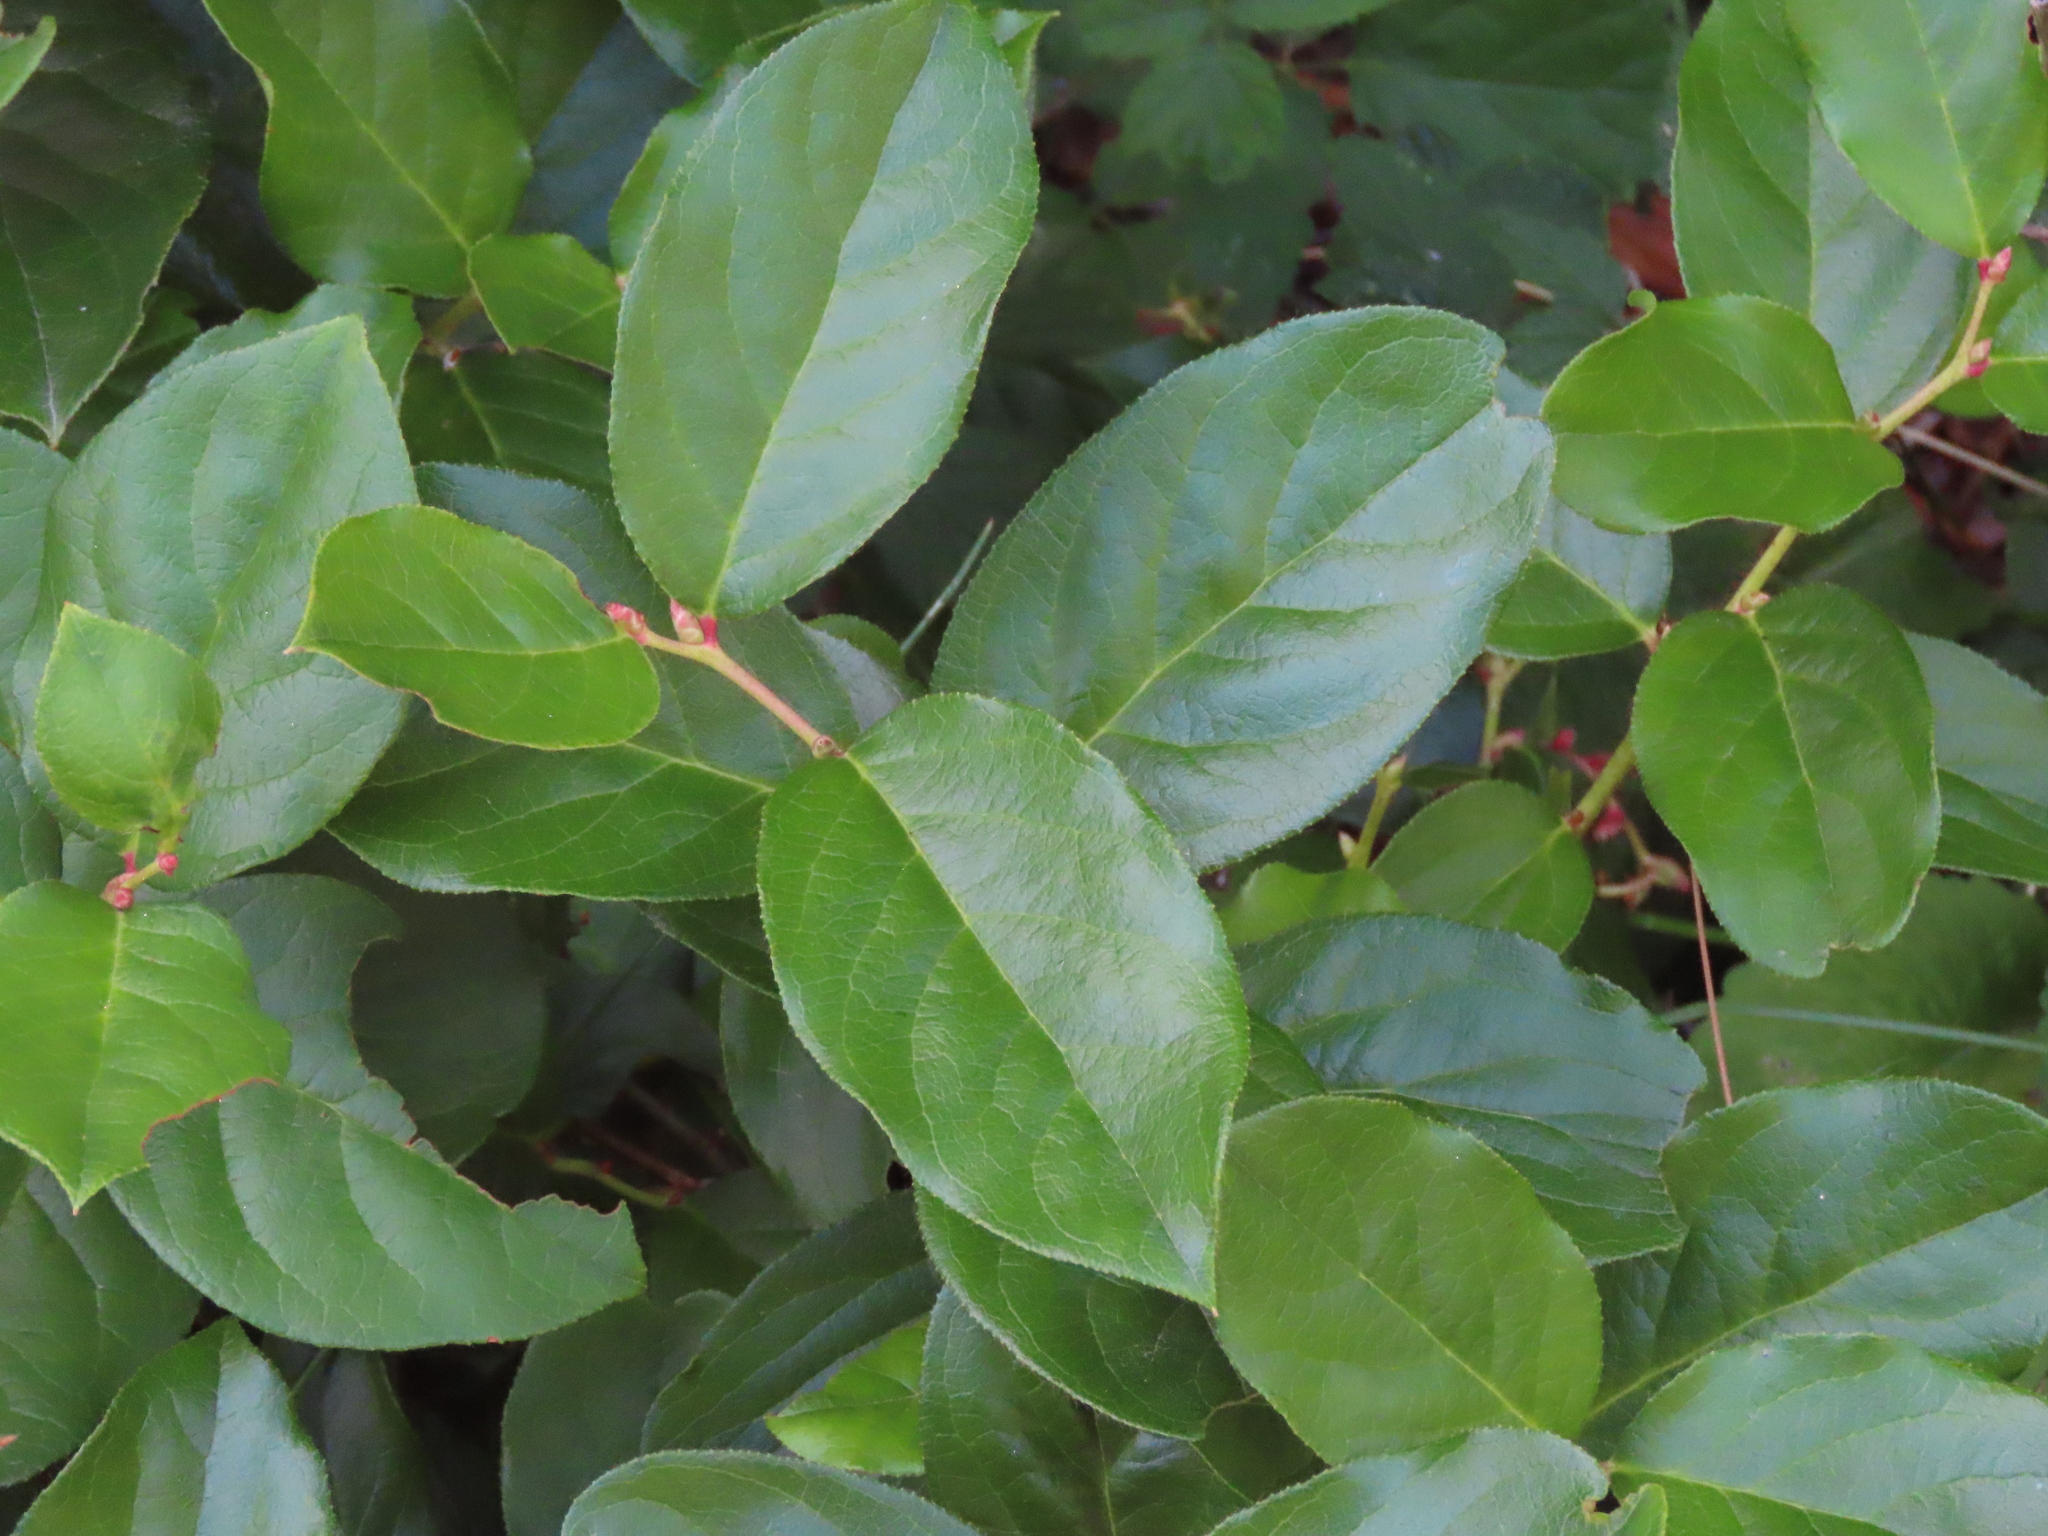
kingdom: Plantae
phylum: Tracheophyta
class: Magnoliopsida
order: Ericales
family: Ericaceae
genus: Gaultheria
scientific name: Gaultheria shallon
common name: Shallon
